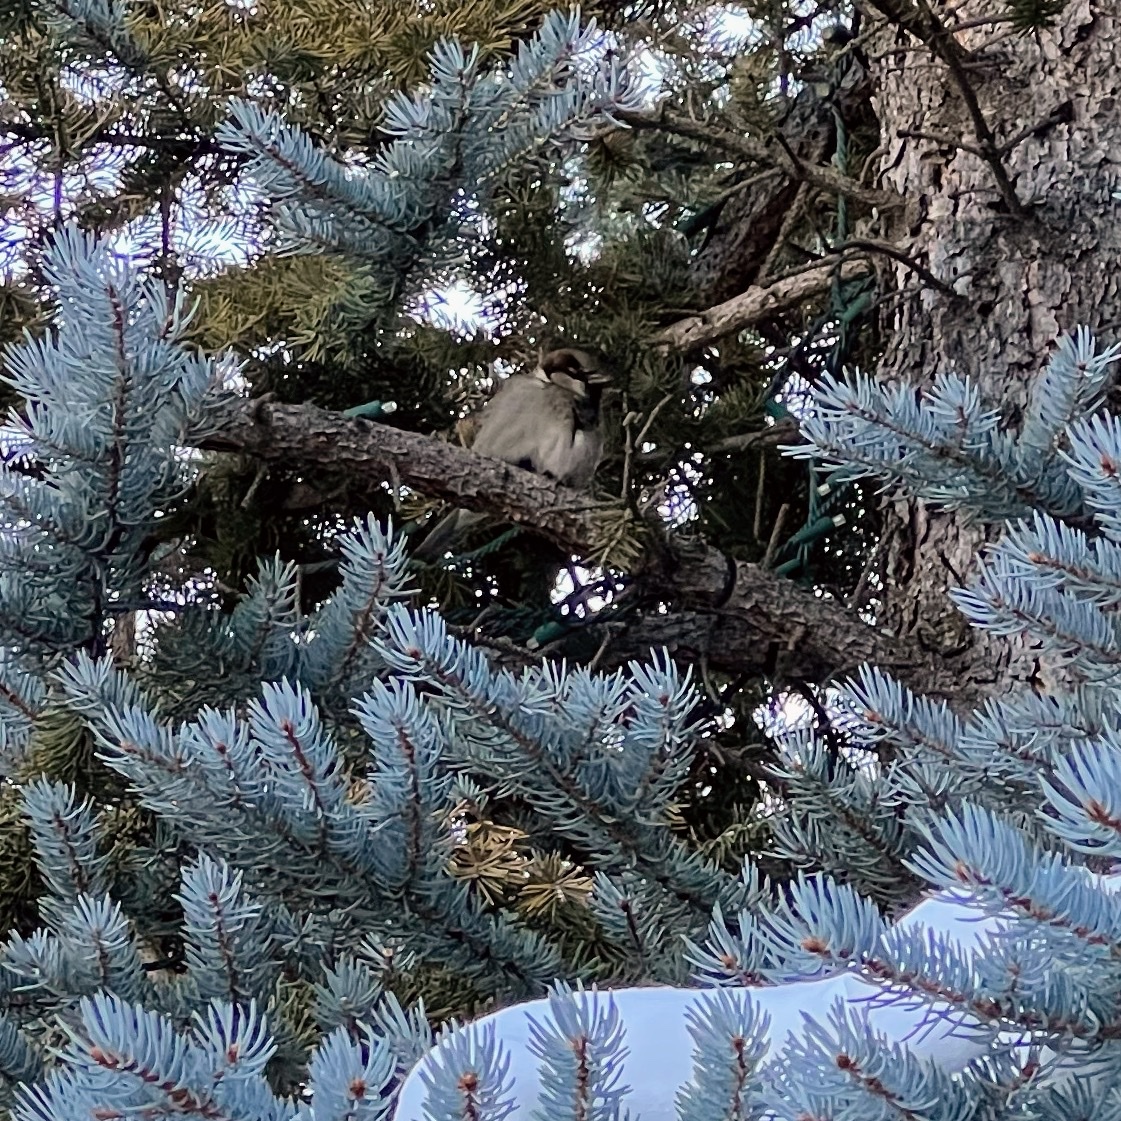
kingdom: Animalia
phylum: Chordata
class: Aves
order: Passeriformes
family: Passeridae
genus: Passer
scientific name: Passer domesticus
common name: House sparrow
